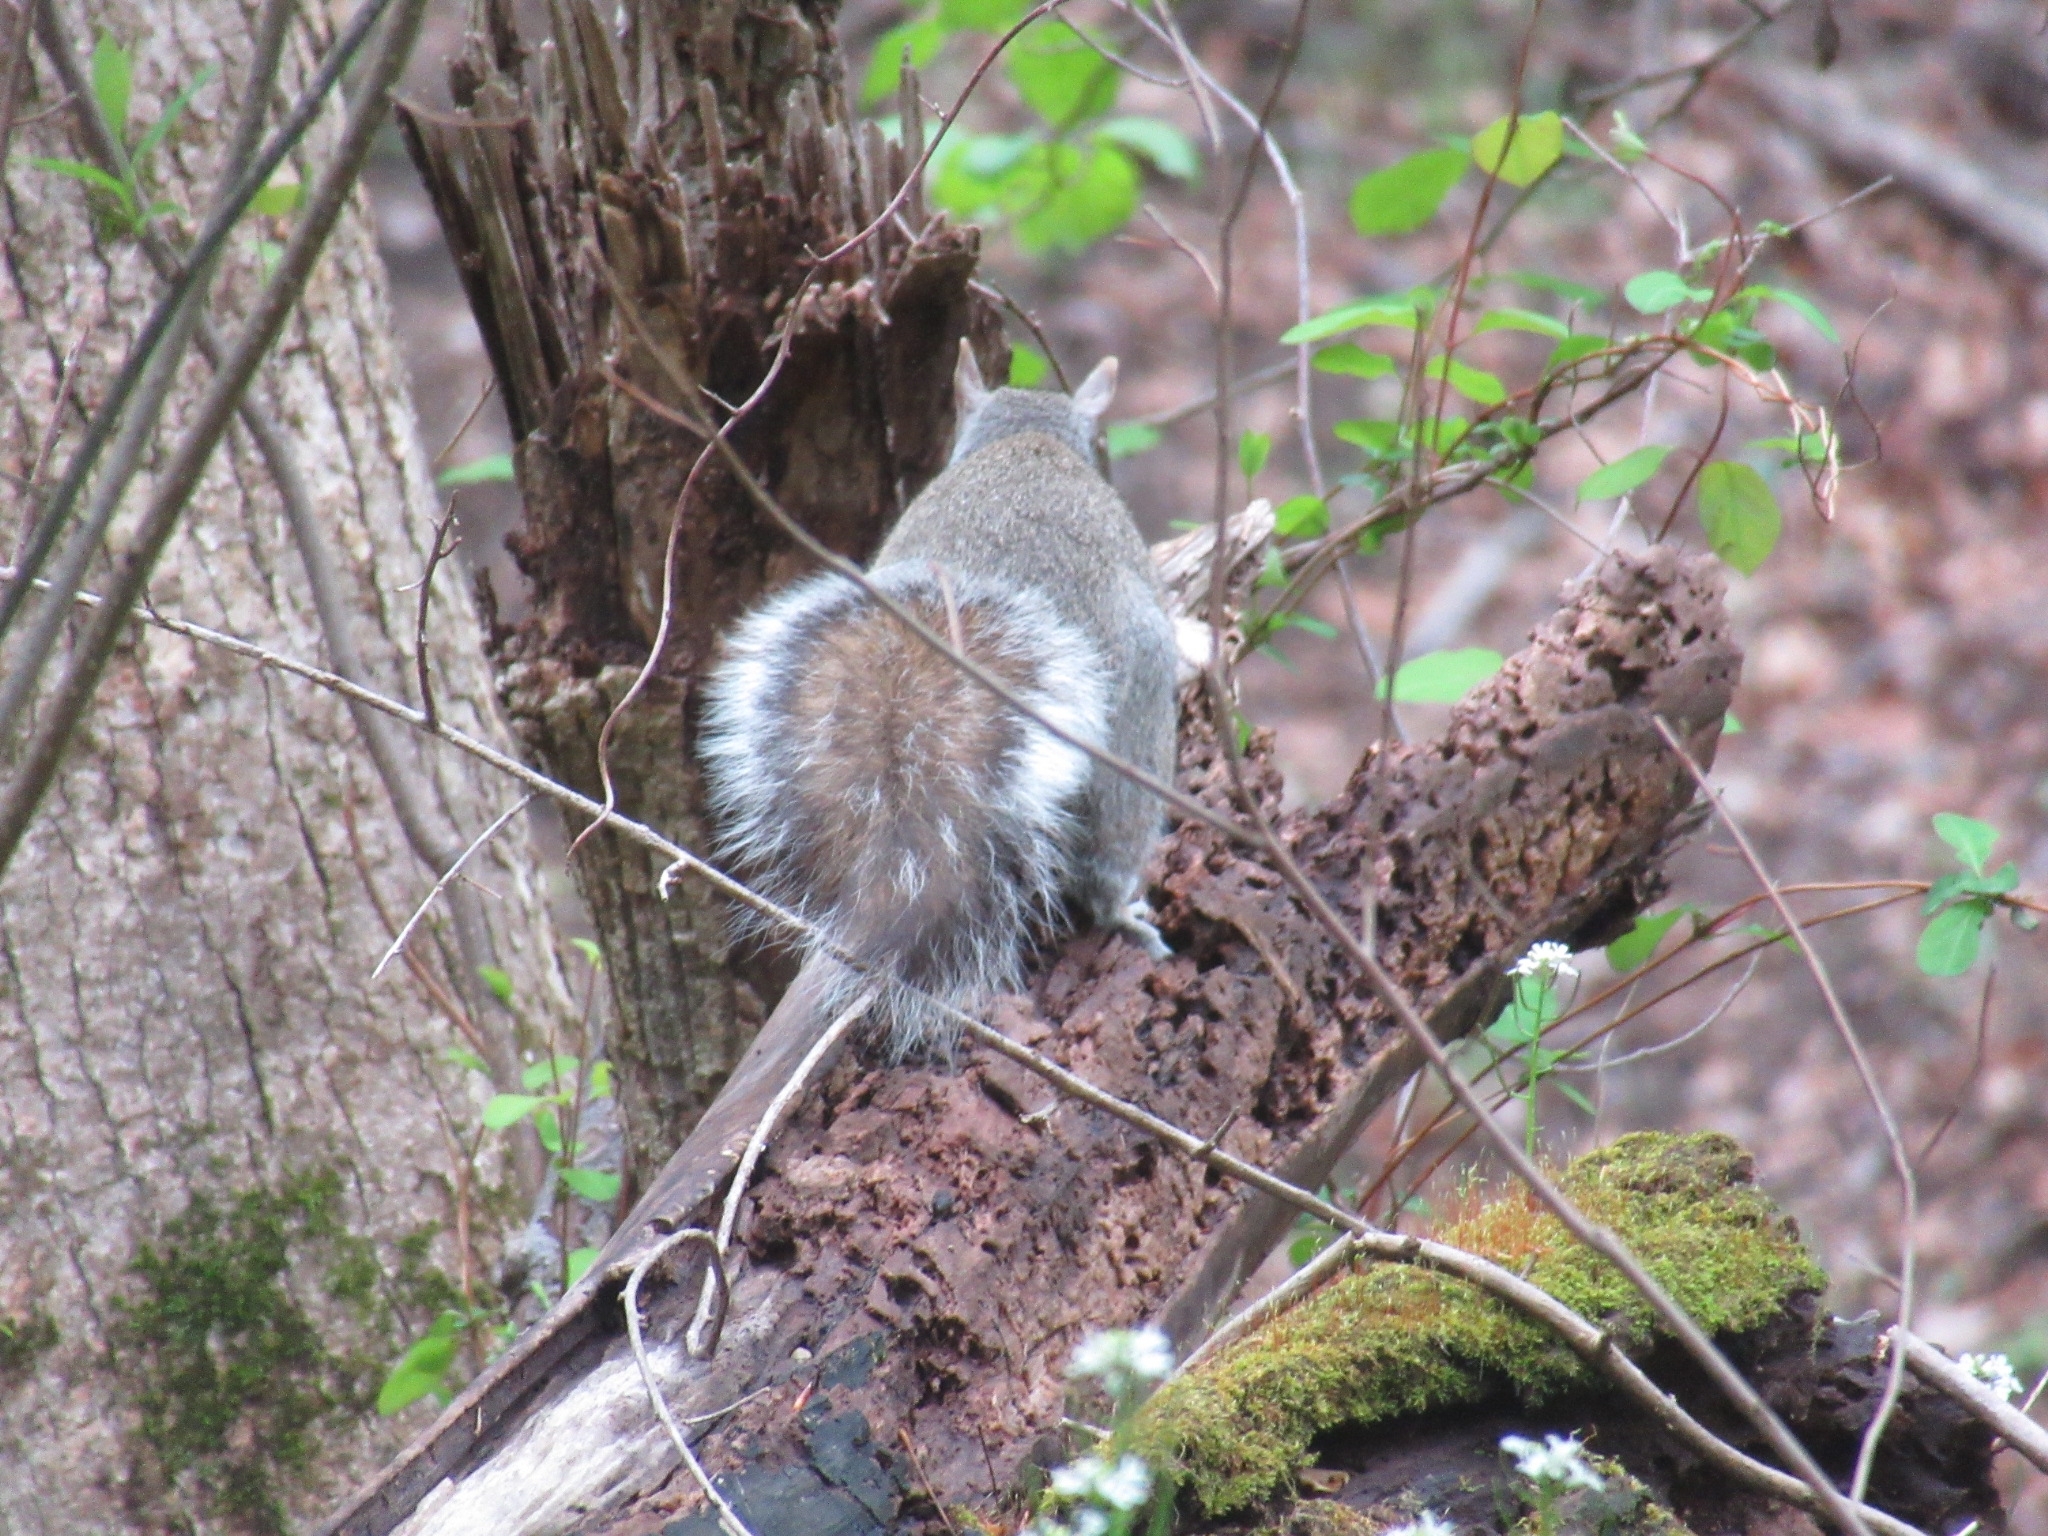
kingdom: Animalia
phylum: Chordata
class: Mammalia
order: Rodentia
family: Sciuridae
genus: Sciurus
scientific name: Sciurus carolinensis
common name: Eastern gray squirrel
